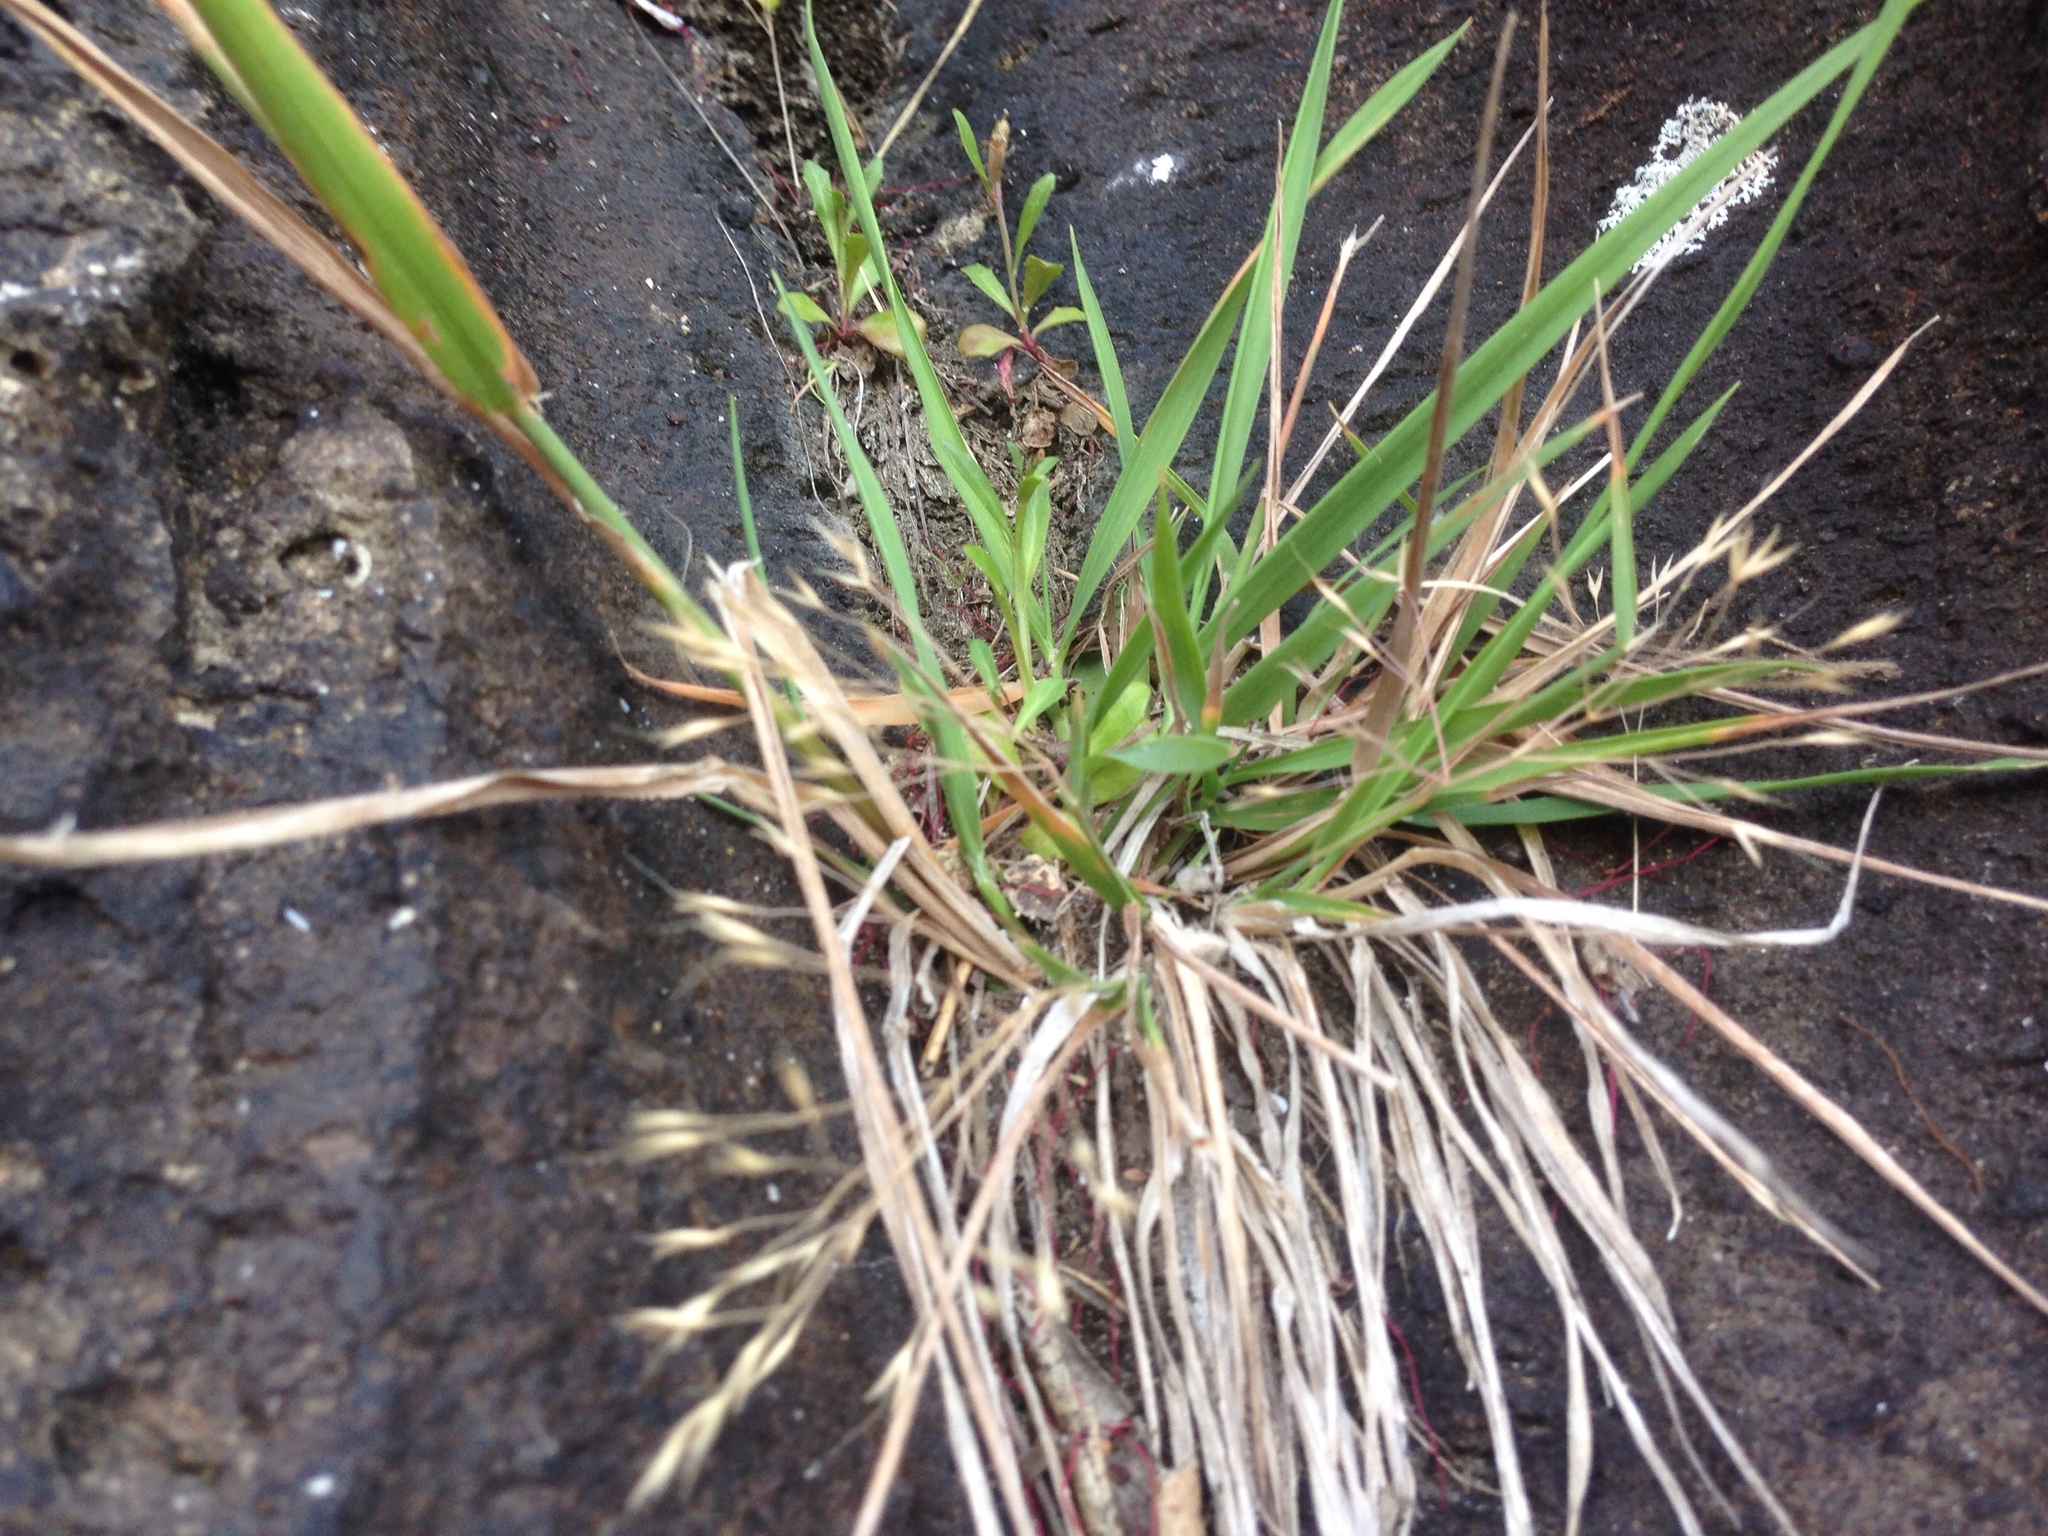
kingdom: Plantae
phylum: Tracheophyta
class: Liliopsida
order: Poales
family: Poaceae
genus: Lachnagrostis
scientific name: Lachnagrostis billardierei
